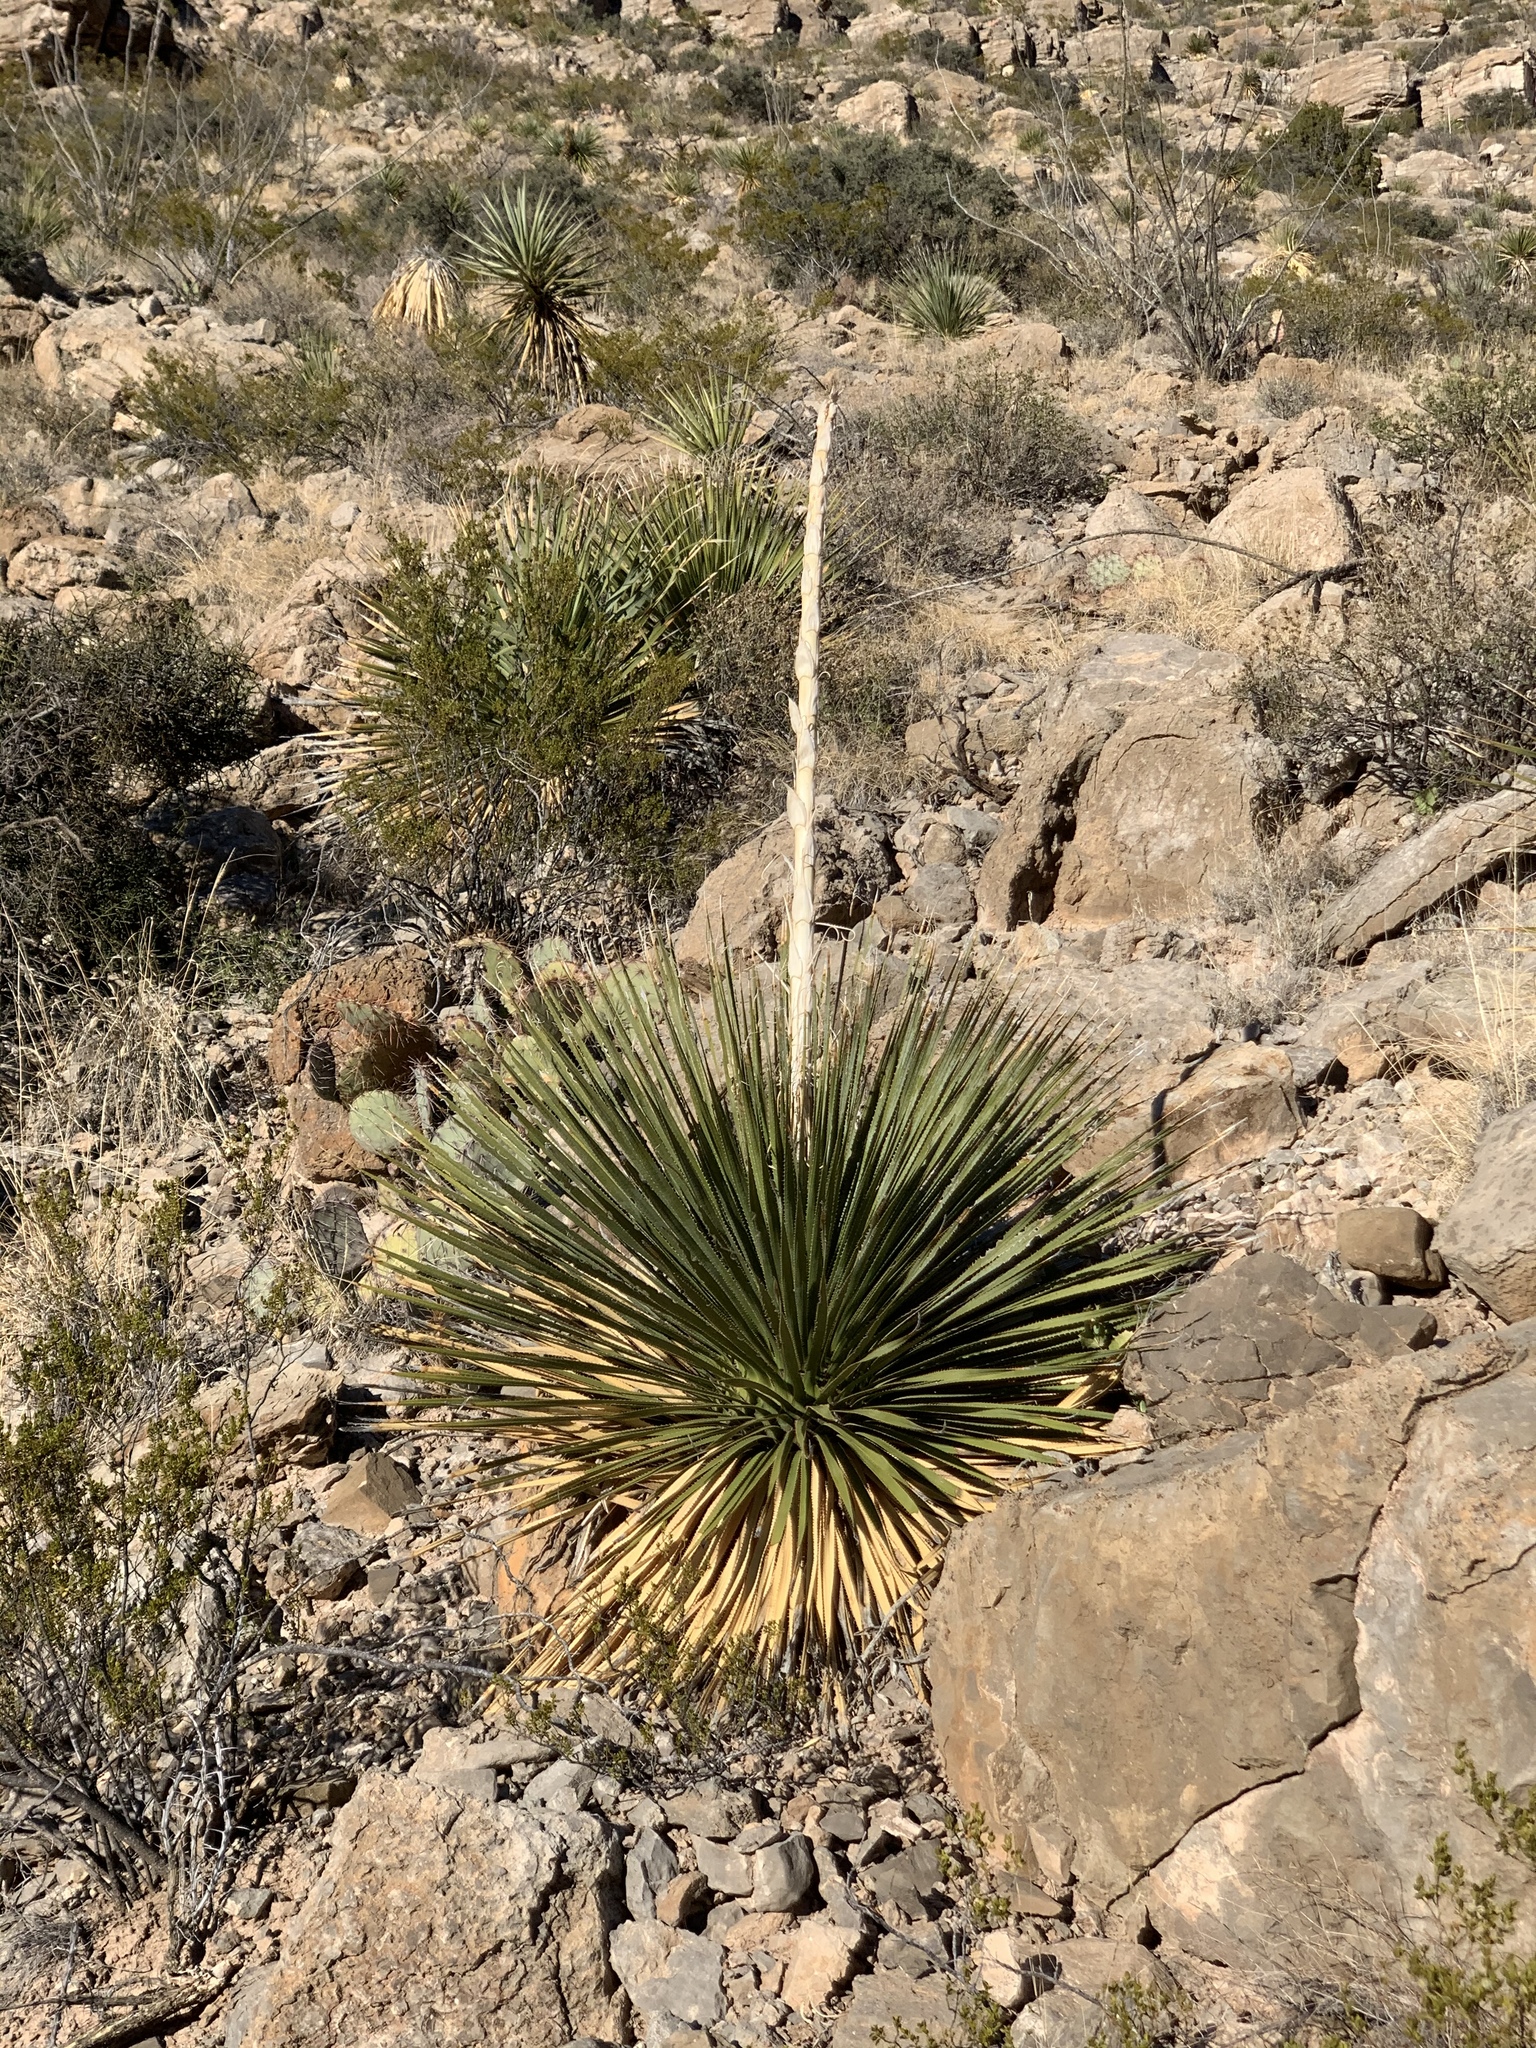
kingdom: Plantae
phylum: Tracheophyta
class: Liliopsida
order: Asparagales
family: Asparagaceae
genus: Dasylirion
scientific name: Dasylirion wheeleri
